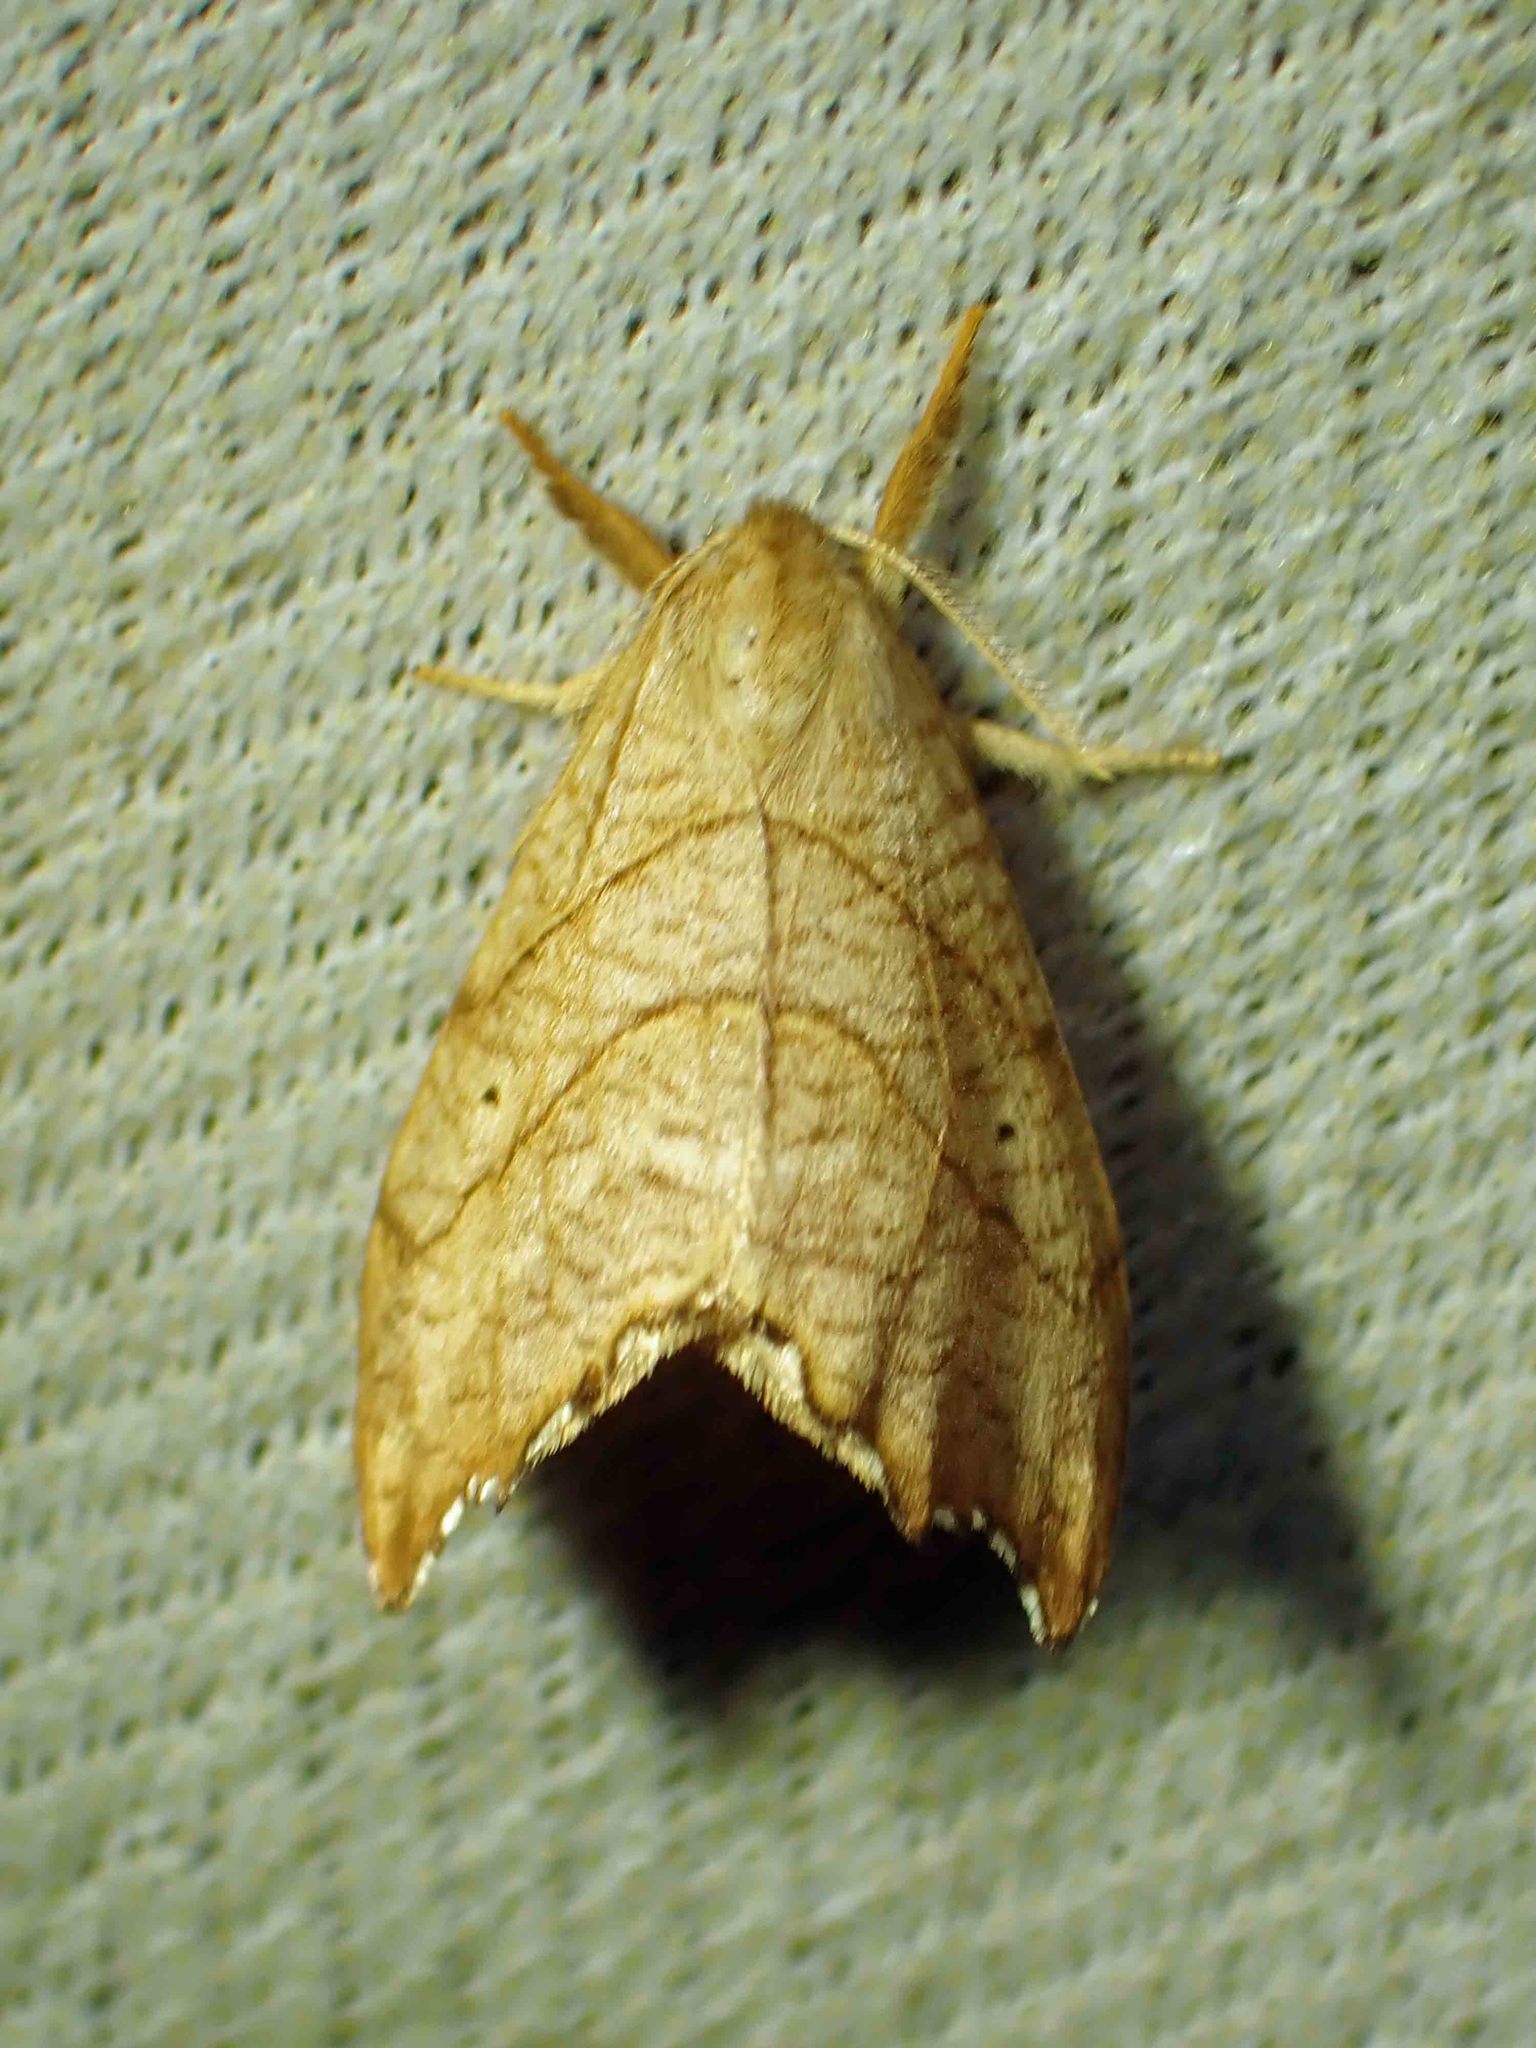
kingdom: Animalia
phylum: Arthropoda
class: Insecta
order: Lepidoptera
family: Drepanidae
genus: Falcaria
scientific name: Falcaria bilineata
